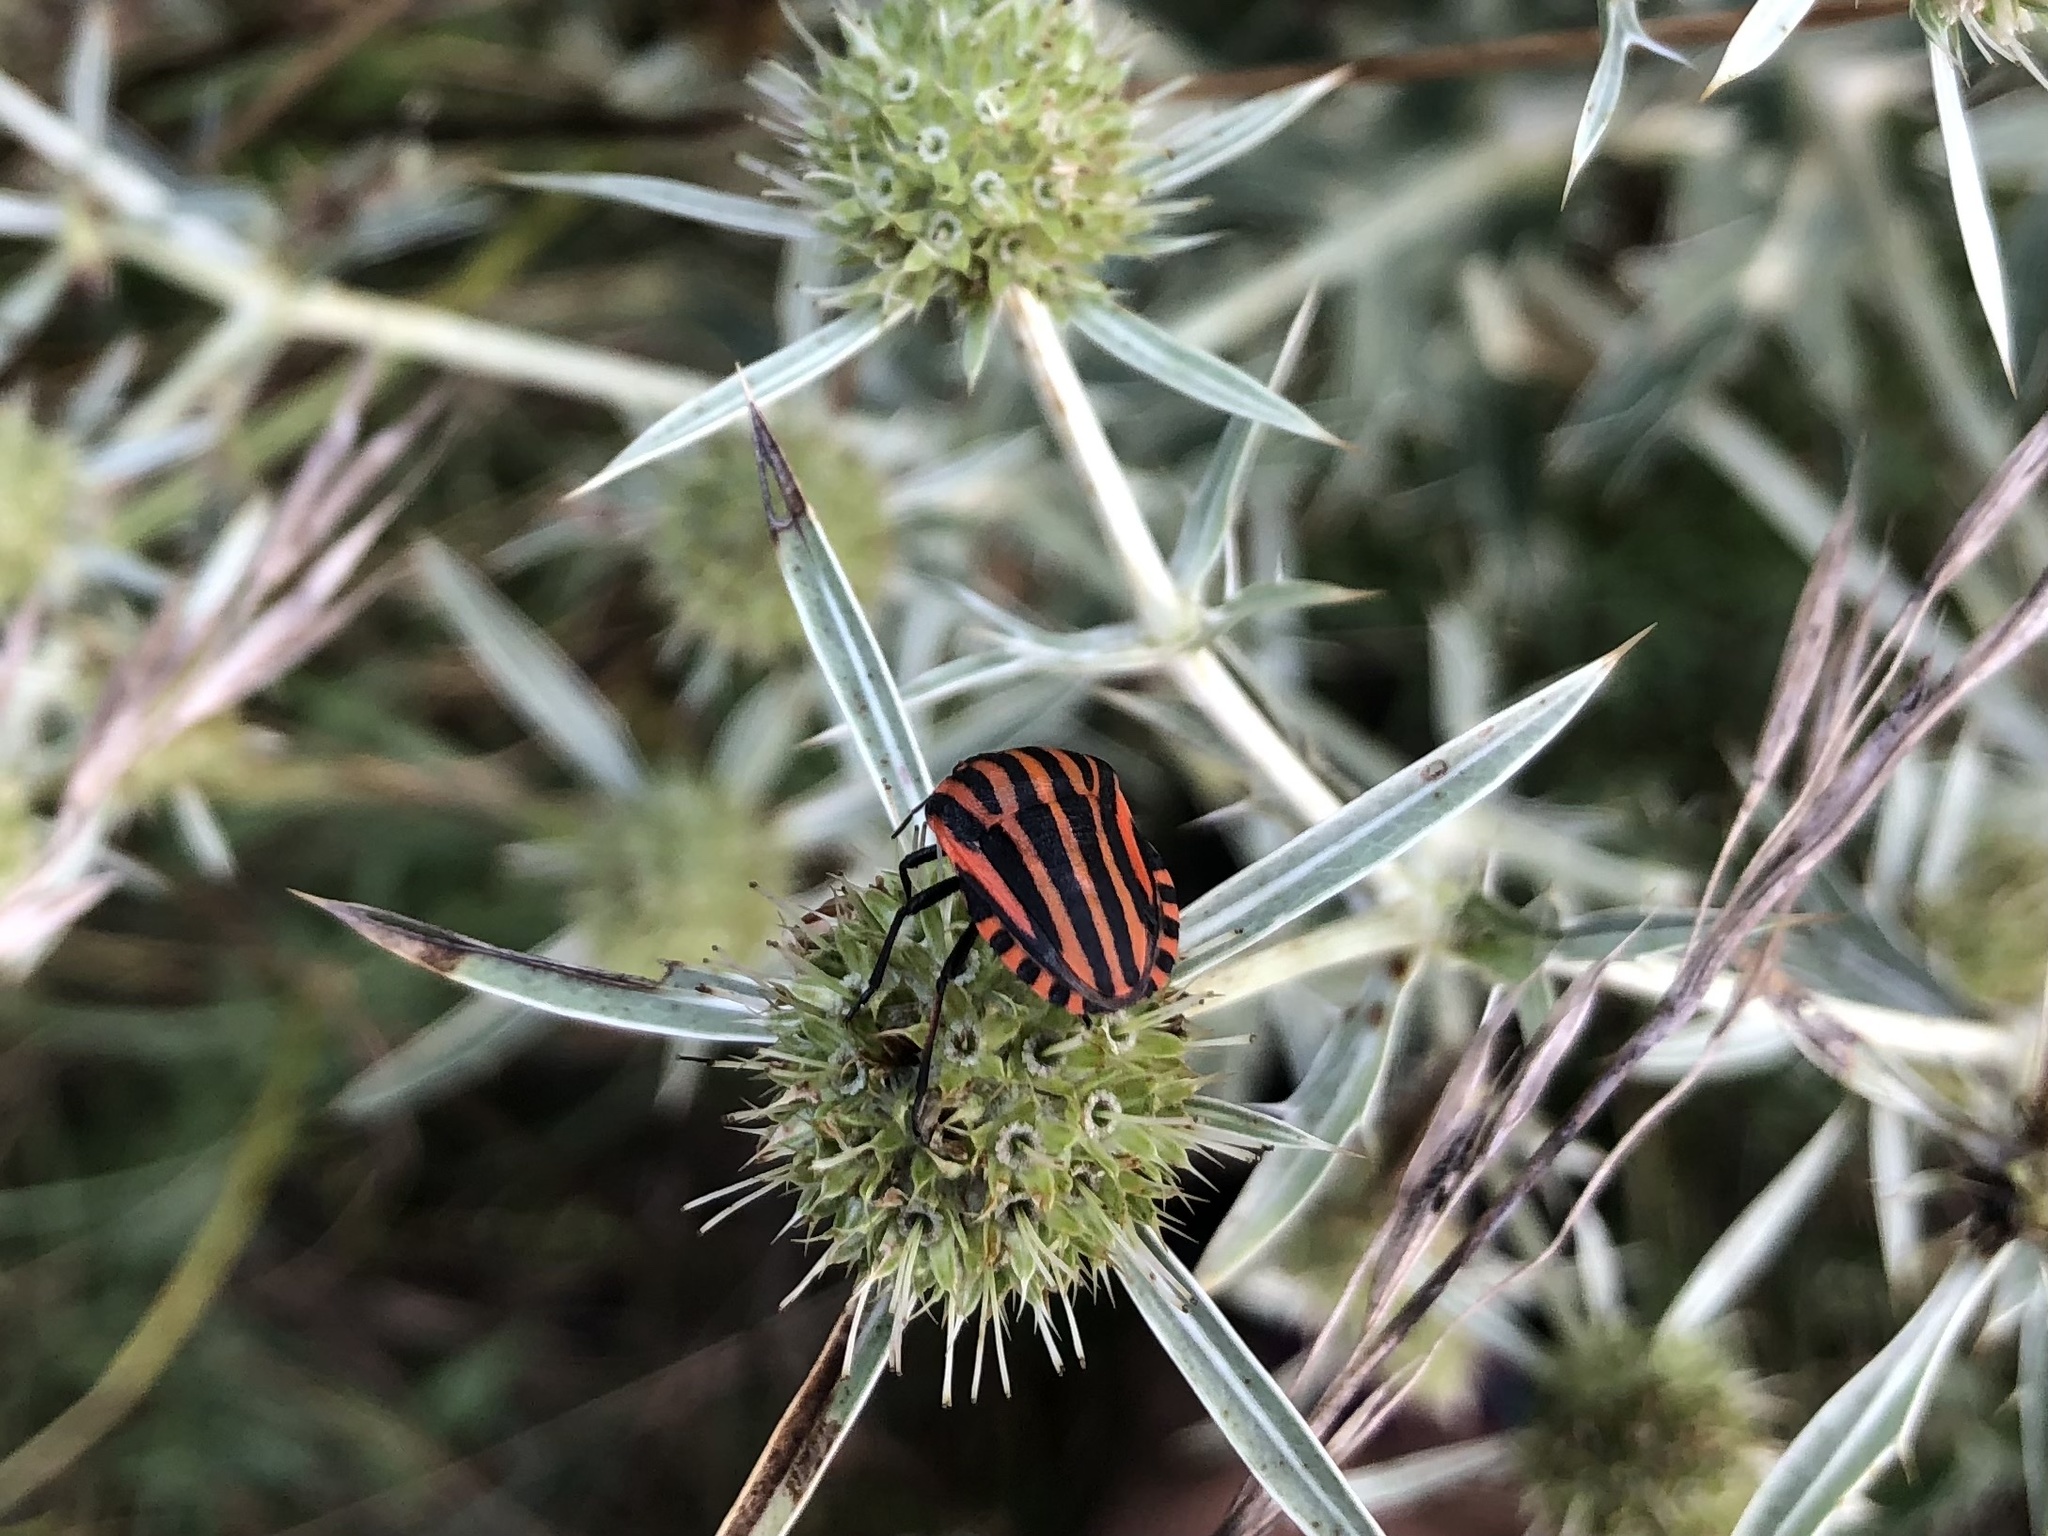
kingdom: Animalia
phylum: Arthropoda
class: Insecta
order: Hemiptera
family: Pentatomidae
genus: Graphosoma
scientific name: Graphosoma italicum
